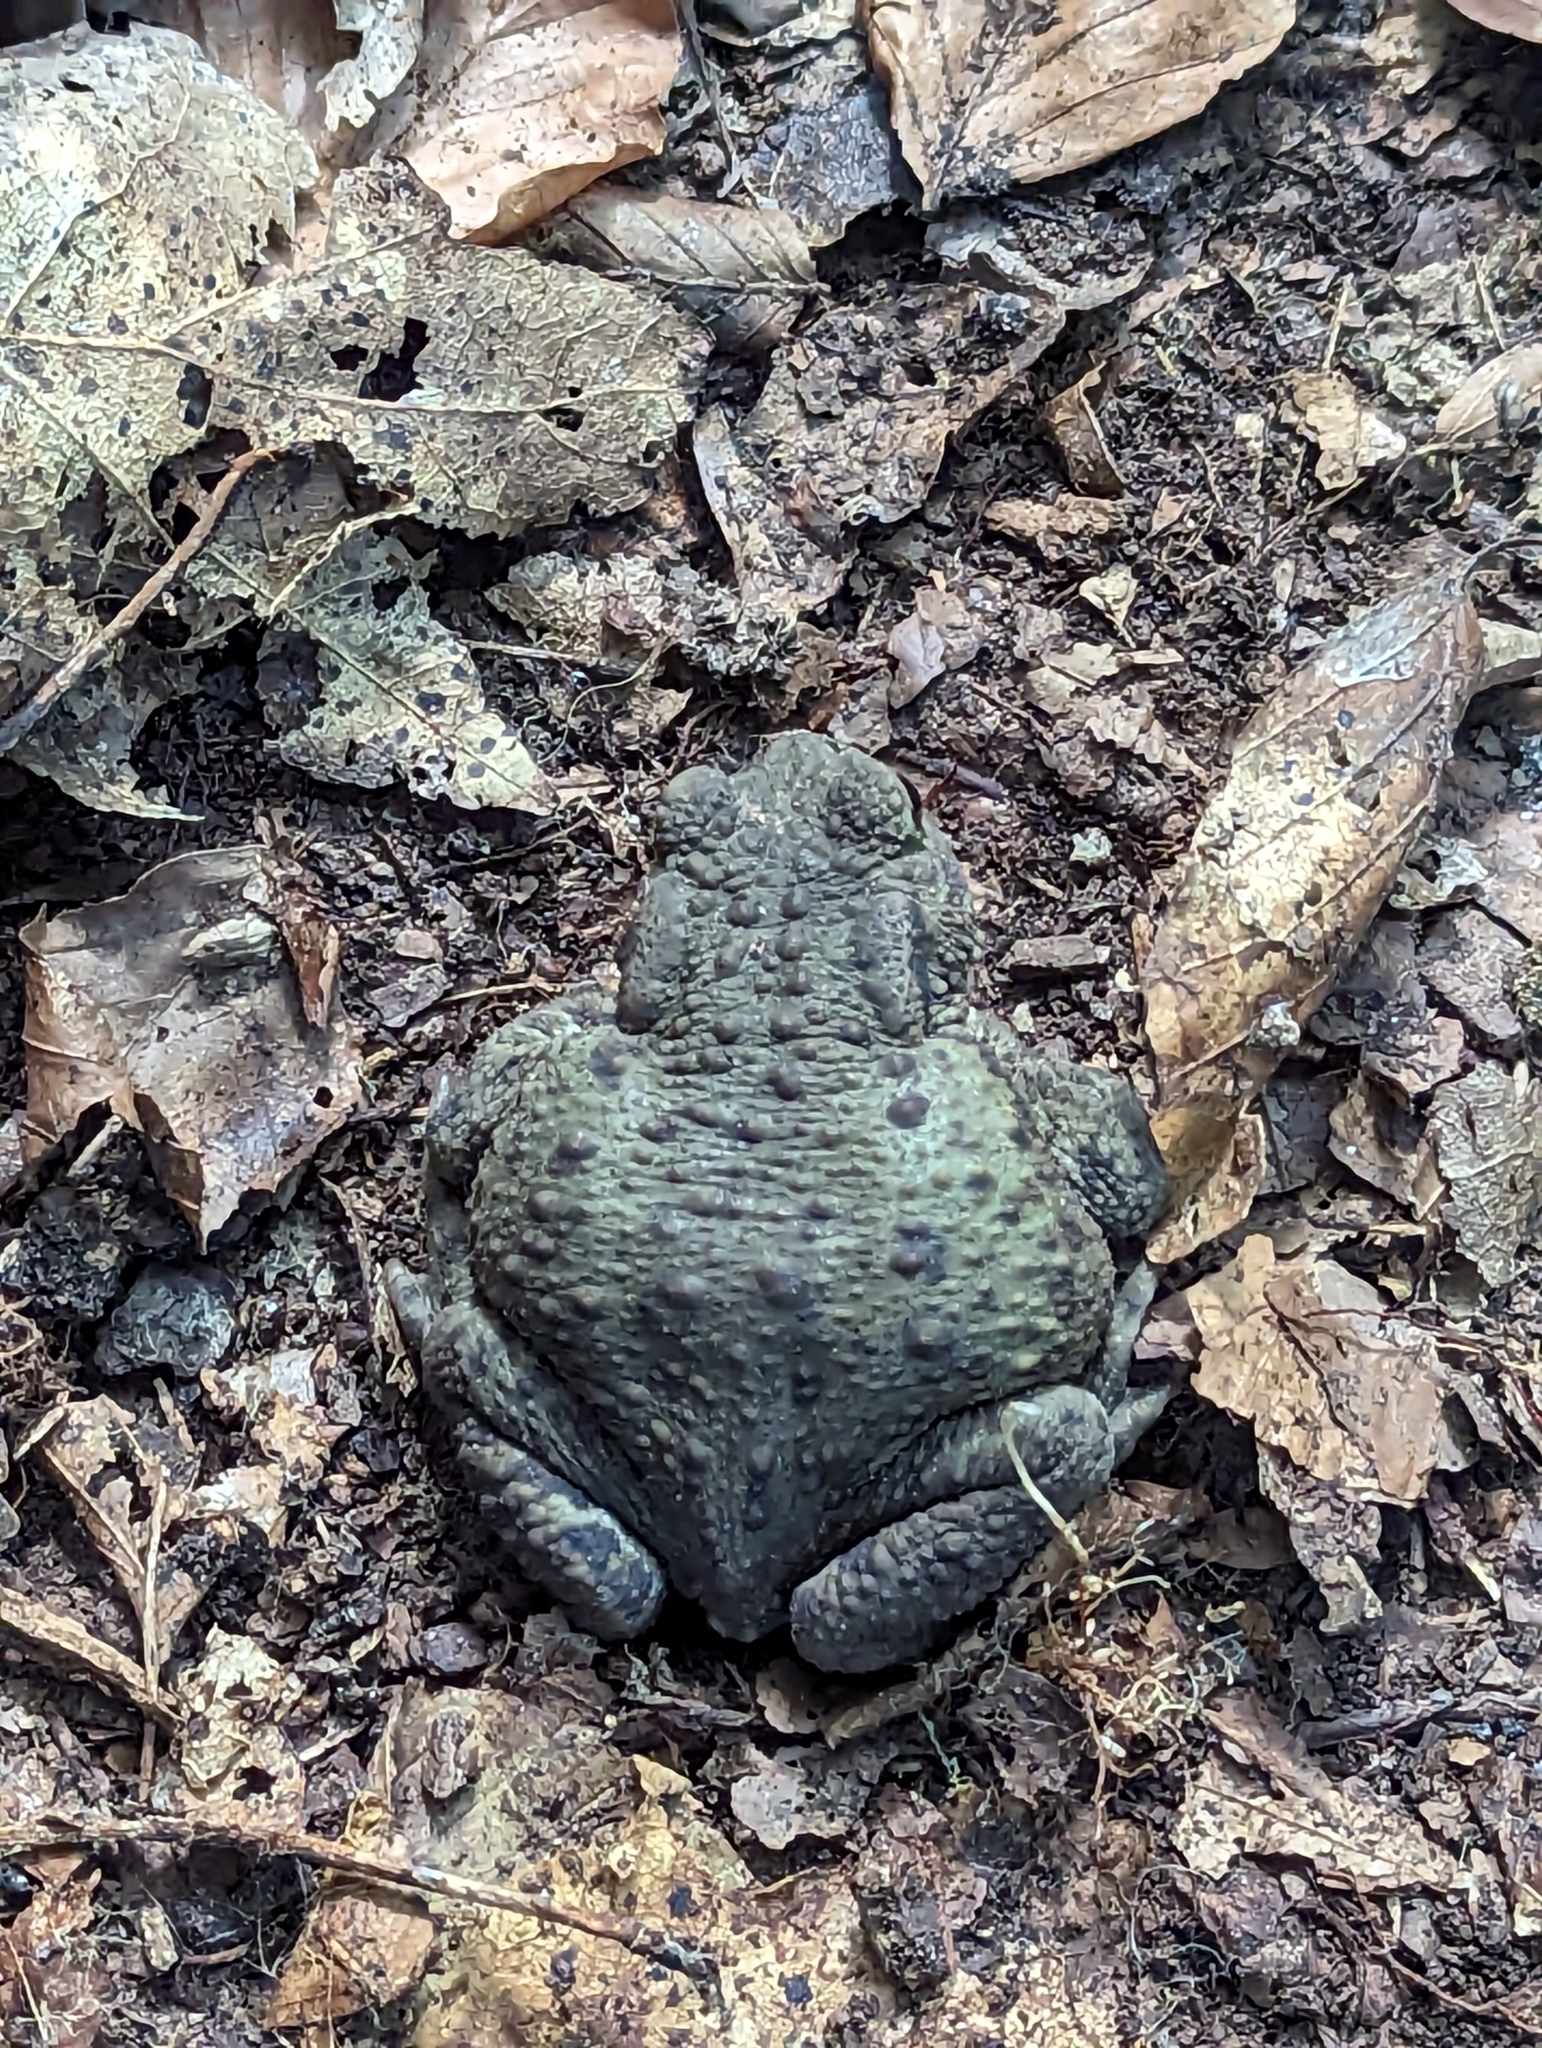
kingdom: Animalia
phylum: Chordata
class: Amphibia
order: Anura
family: Bufonidae
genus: Bufo
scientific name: Bufo bufo
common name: Common toad
